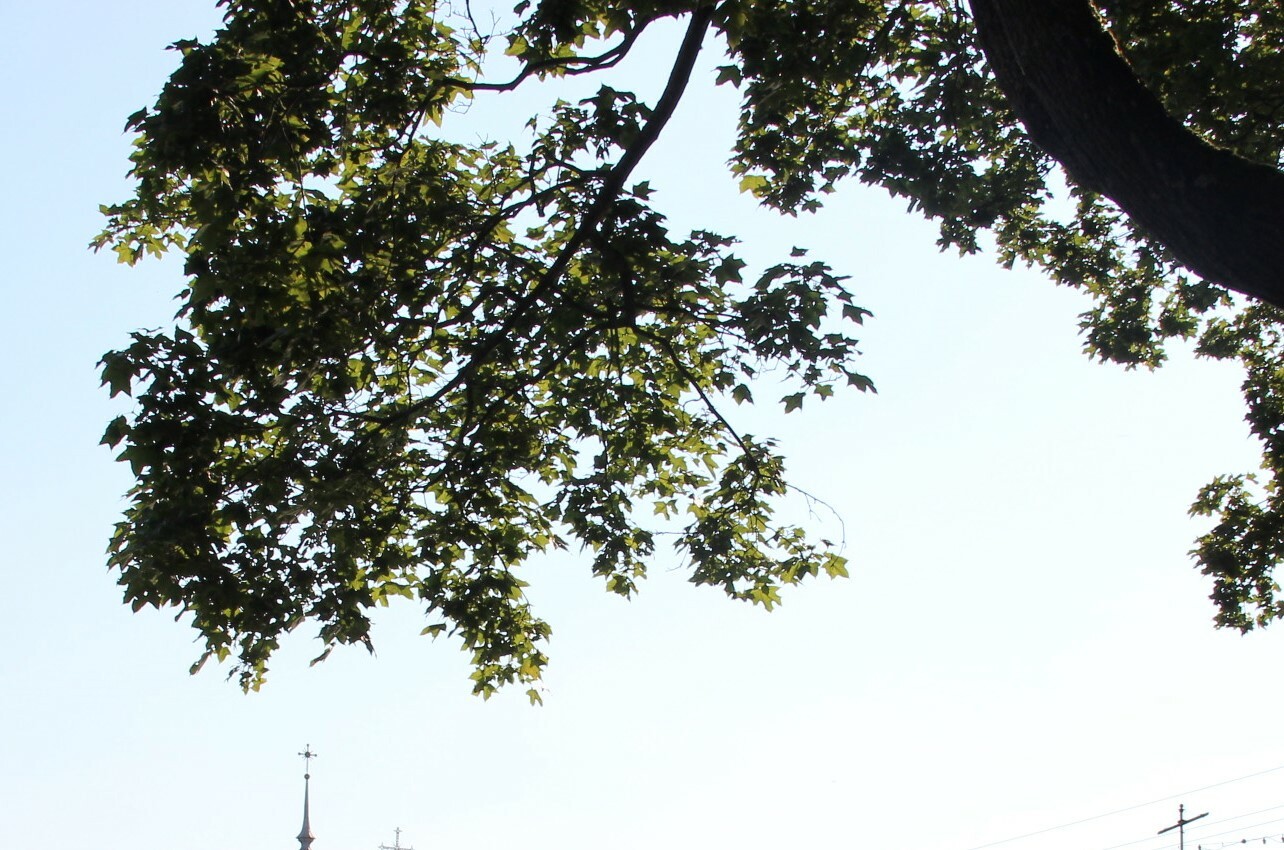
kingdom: Plantae
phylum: Tracheophyta
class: Magnoliopsida
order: Sapindales
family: Sapindaceae
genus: Acer
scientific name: Acer platanoides
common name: Norway maple
